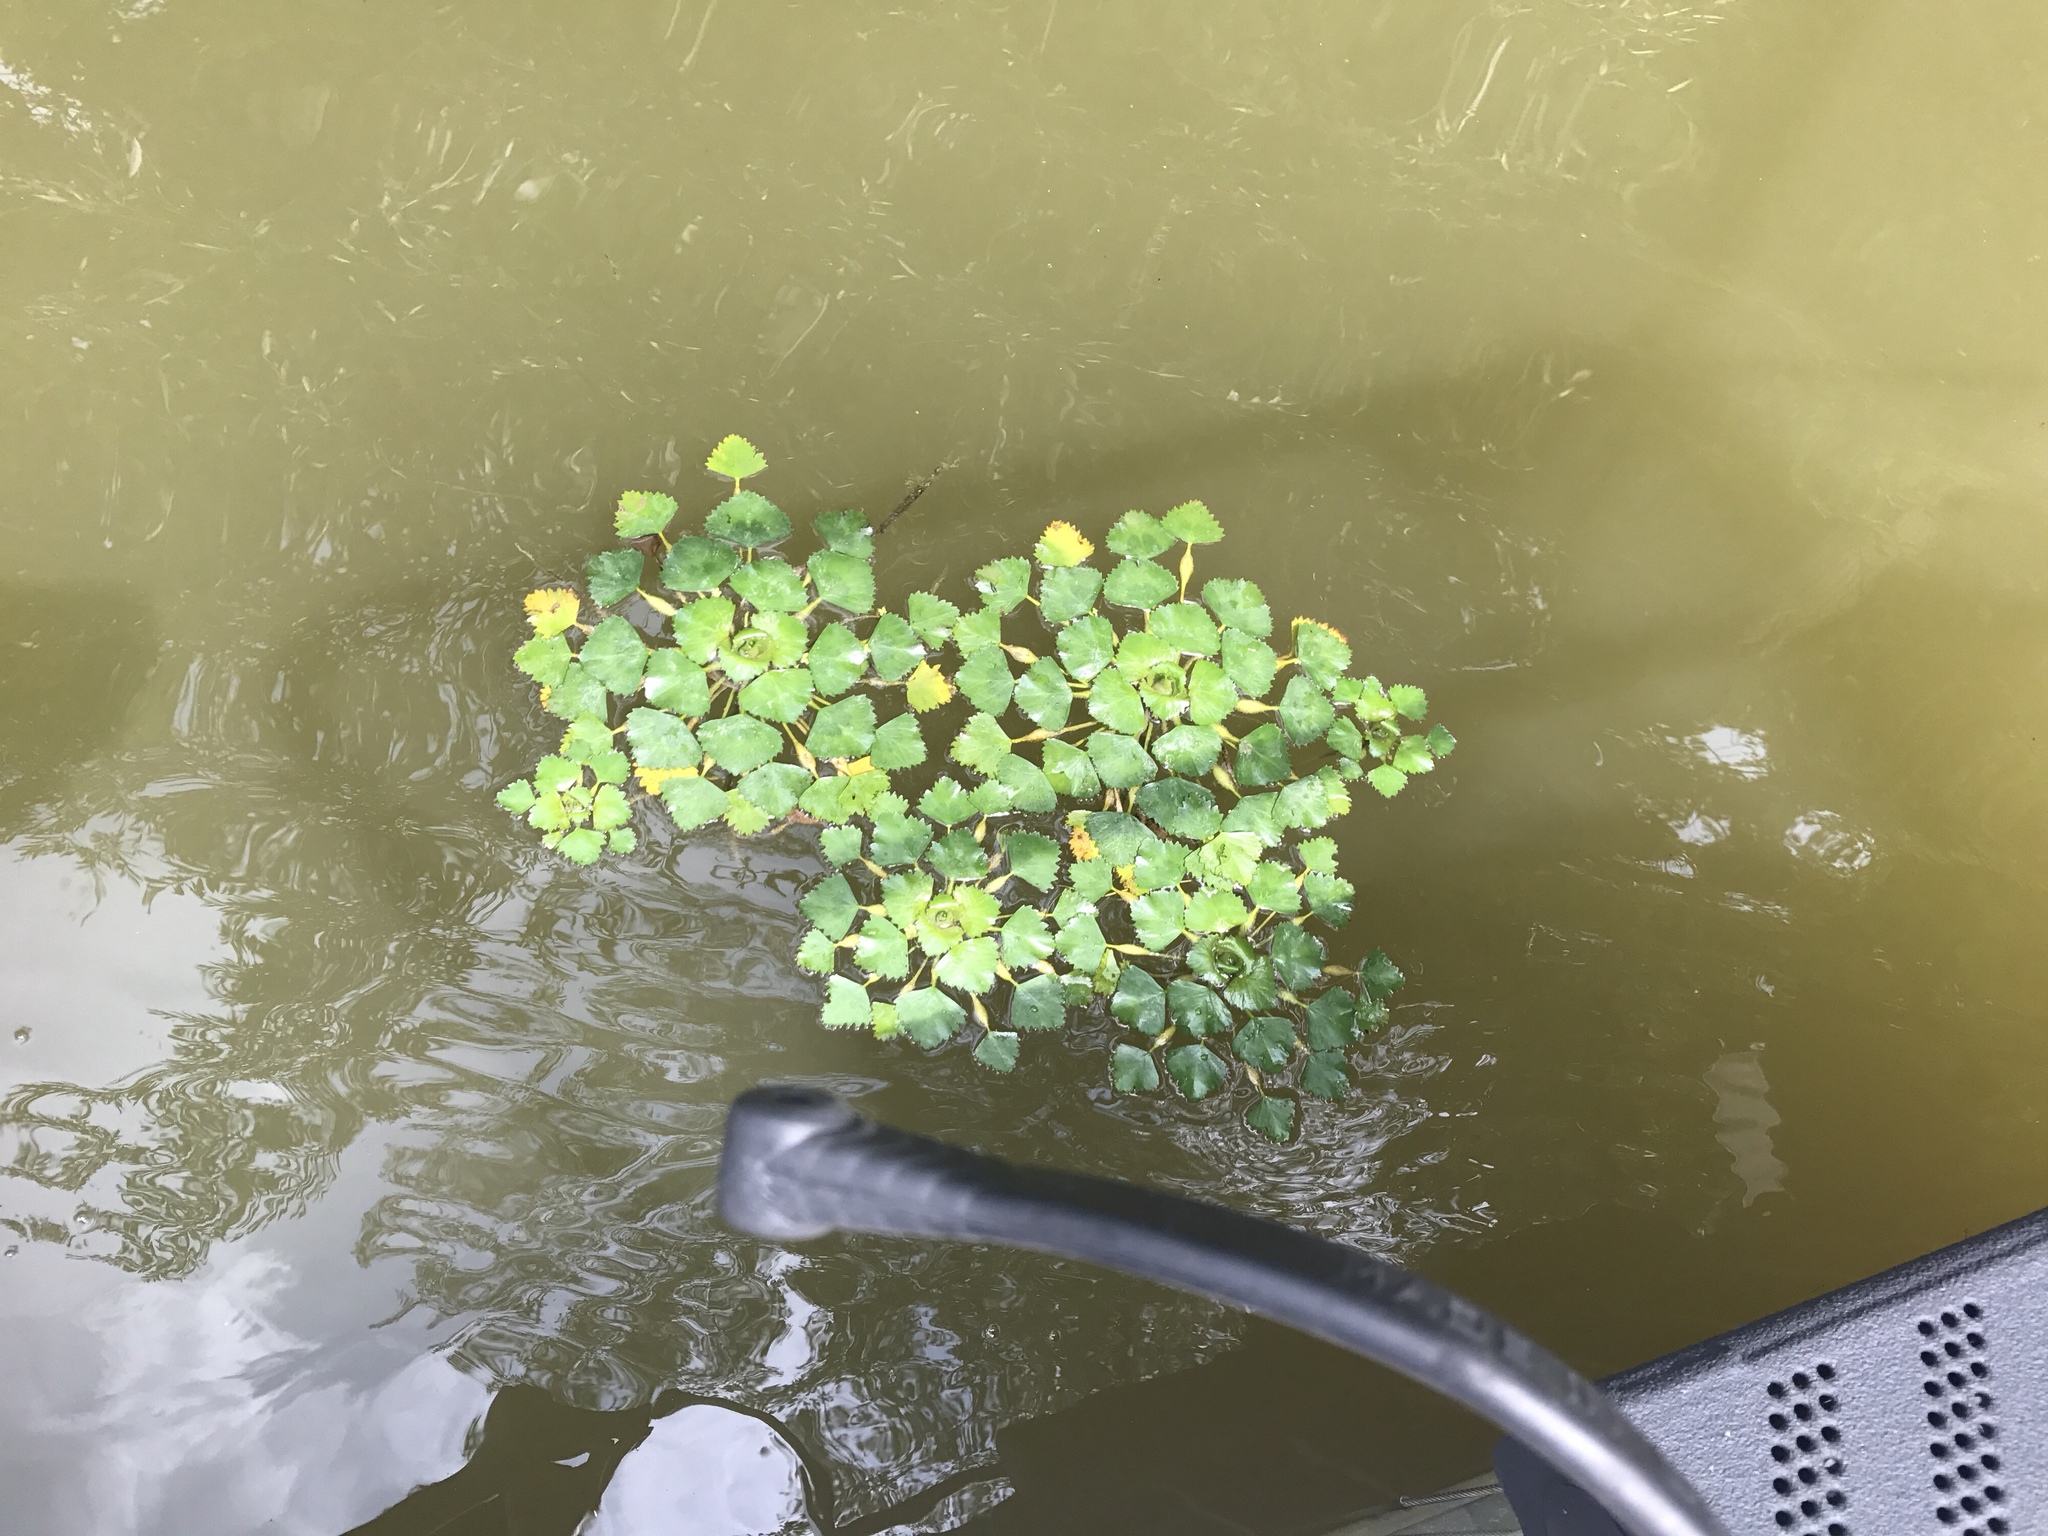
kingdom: Plantae
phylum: Tracheophyta
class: Magnoliopsida
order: Myrtales
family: Lythraceae
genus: Trapa
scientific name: Trapa natans
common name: Water chestnut
